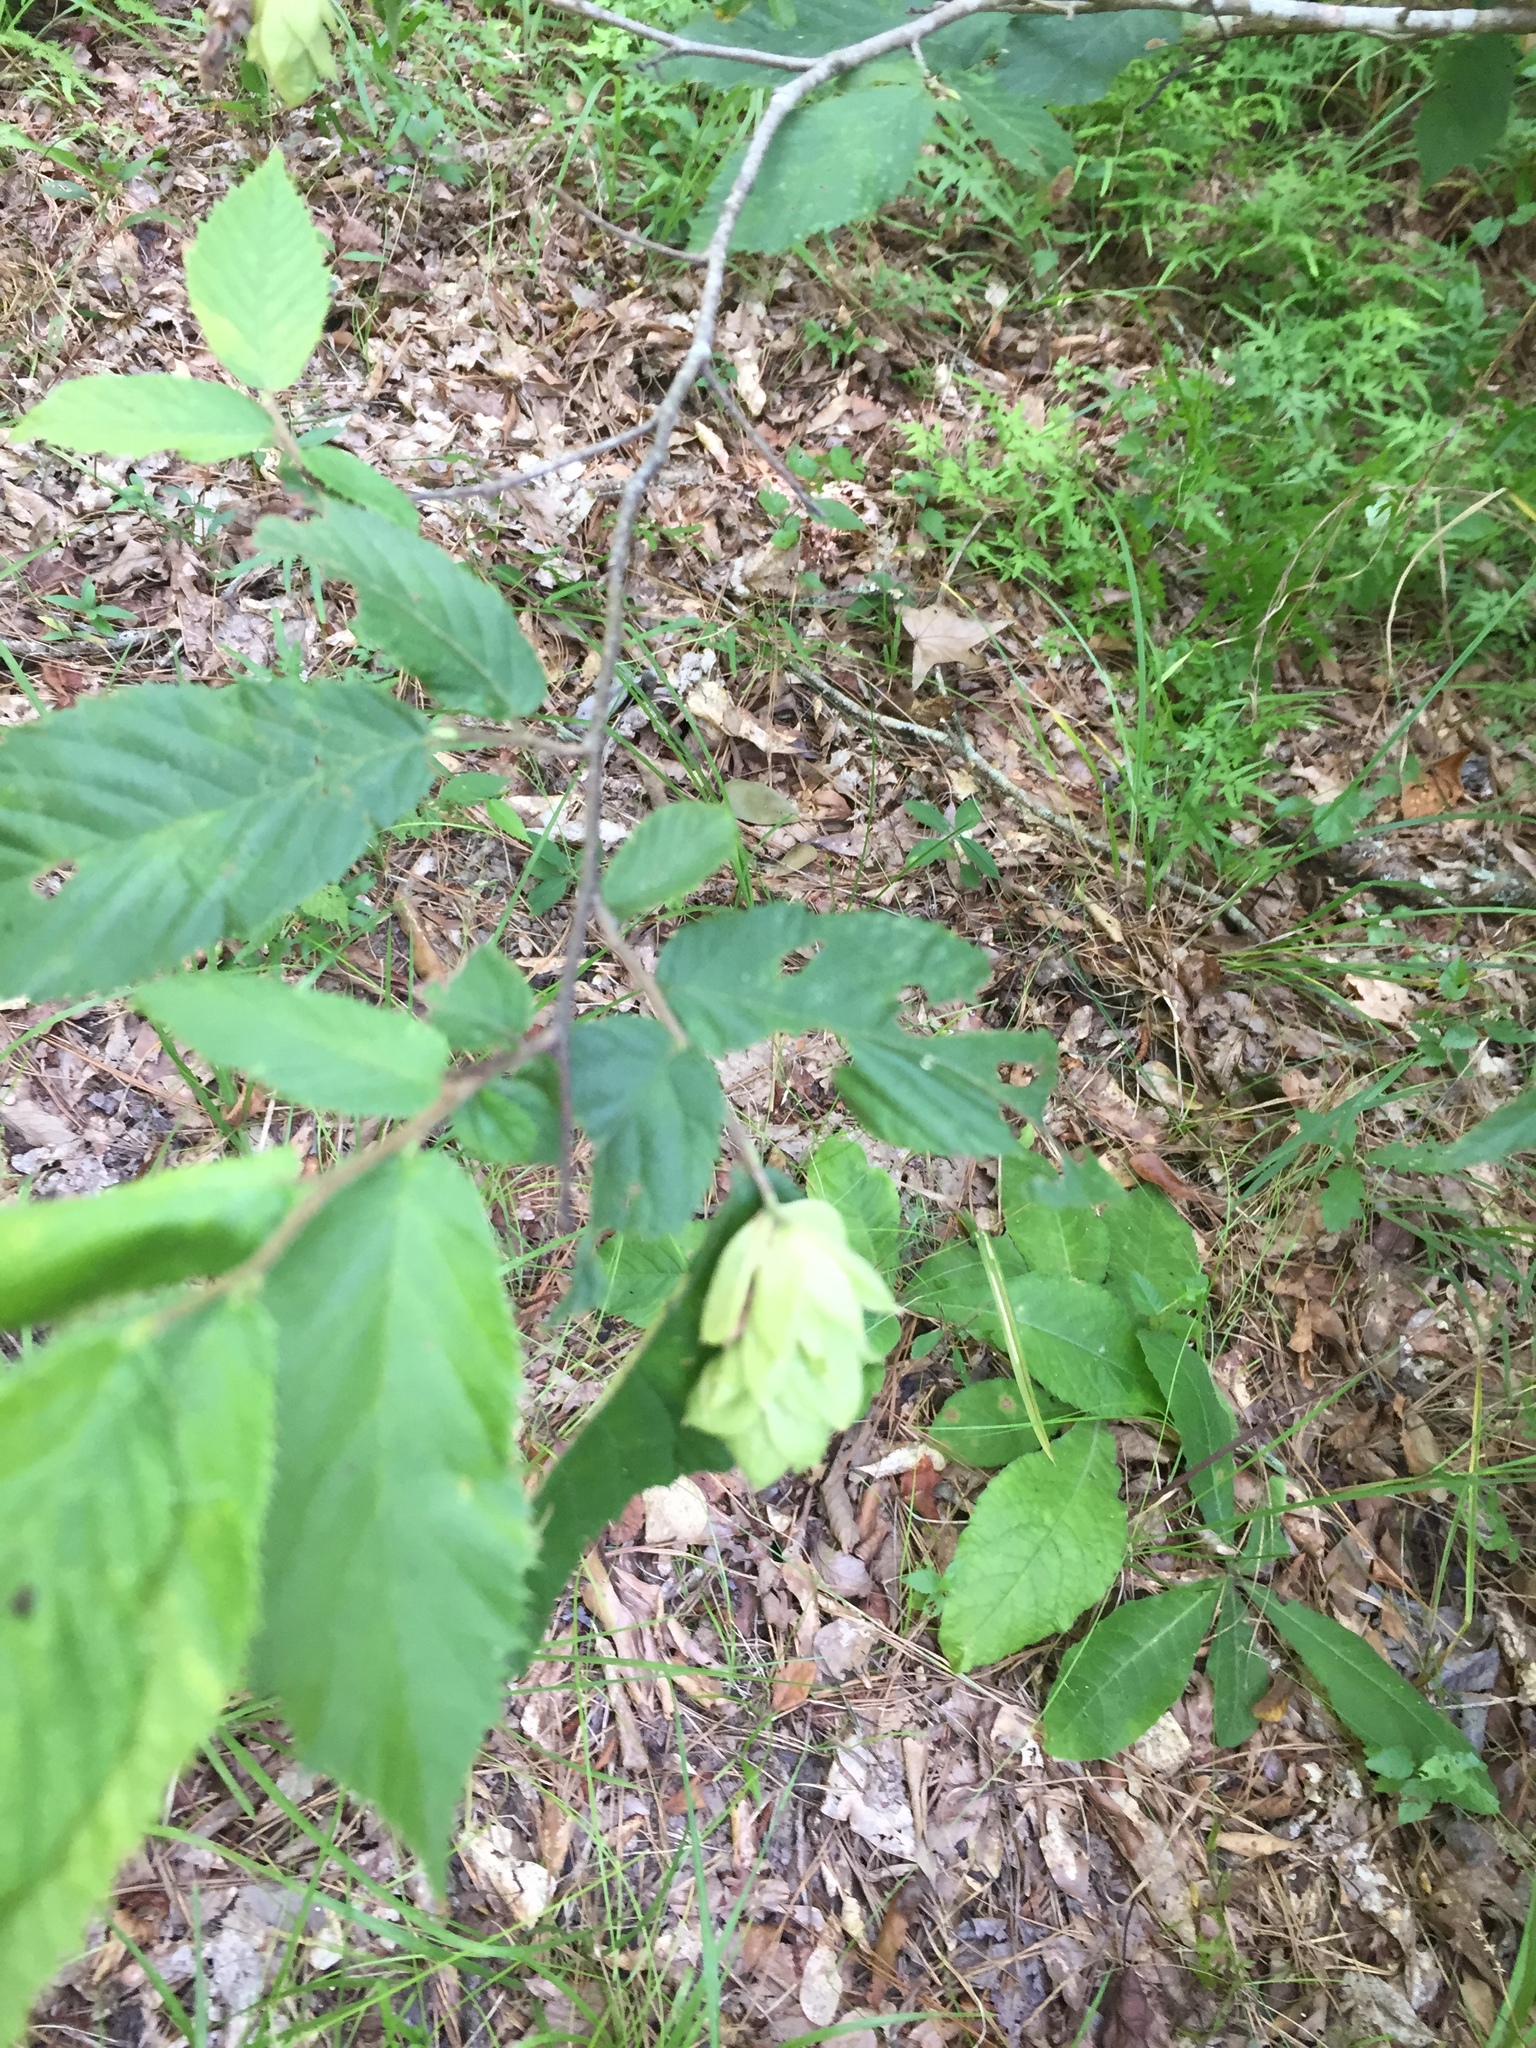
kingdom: Plantae
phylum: Tracheophyta
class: Magnoliopsida
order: Fagales
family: Betulaceae
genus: Ostrya
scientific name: Ostrya virginiana
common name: Ironwood
